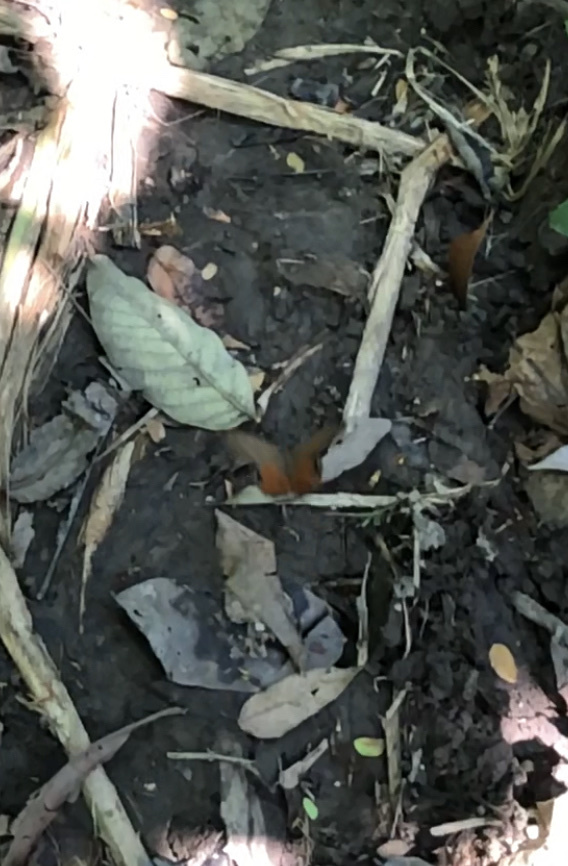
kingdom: Animalia
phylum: Arthropoda
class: Insecta
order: Lepidoptera
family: Nymphalidae
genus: Pierella
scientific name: Pierella luna
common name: Moon satyr
